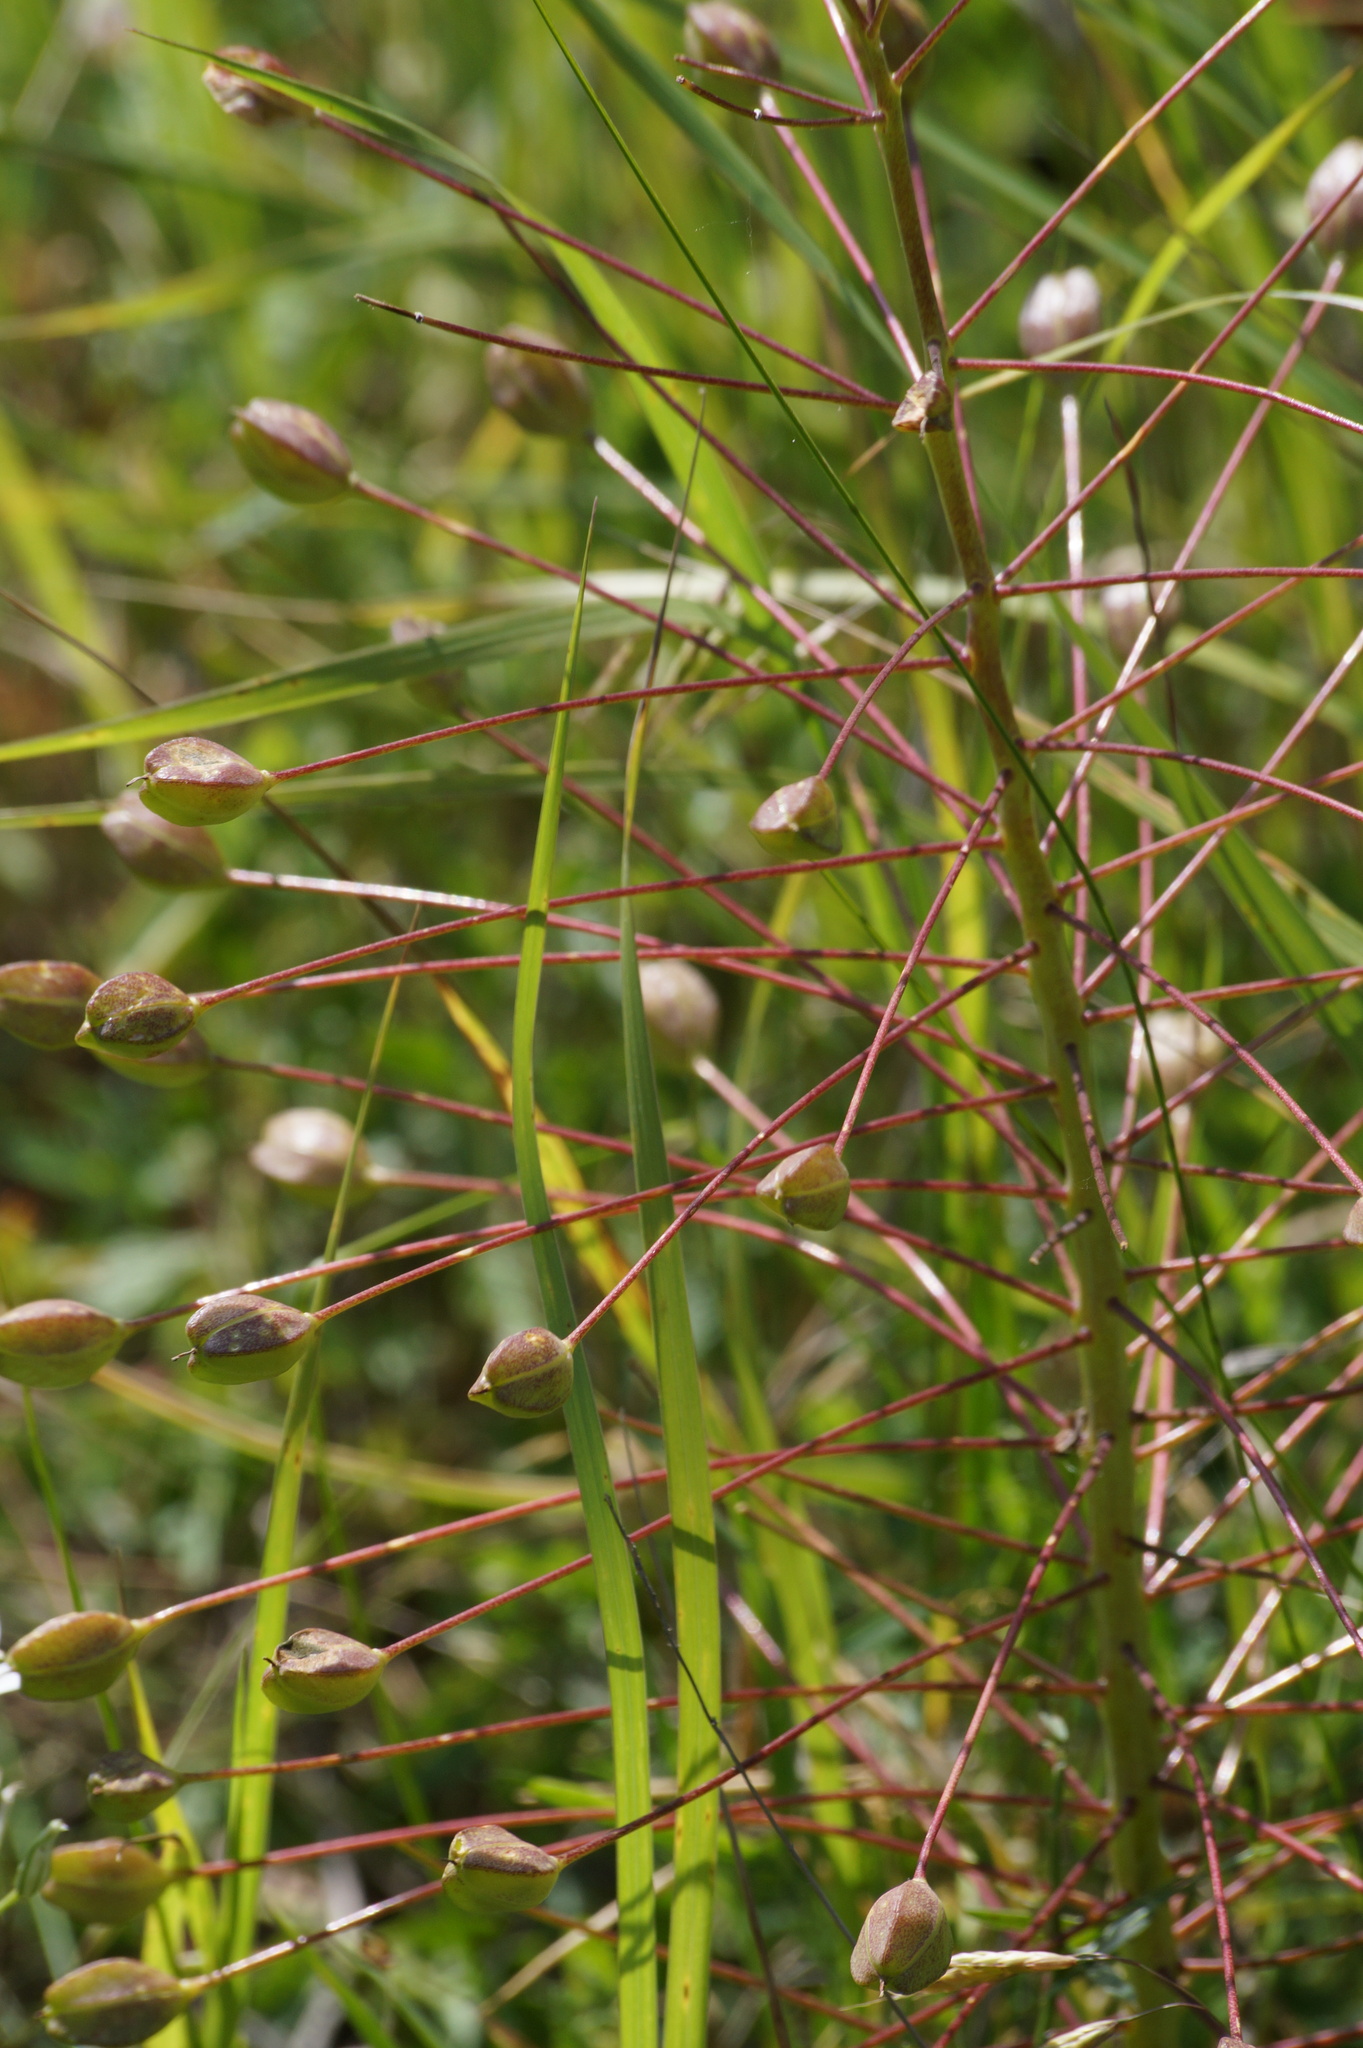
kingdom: Plantae
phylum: Tracheophyta
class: Liliopsida
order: Asparagales
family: Asparagaceae
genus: Bellevalia
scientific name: Bellevalia speciosa
